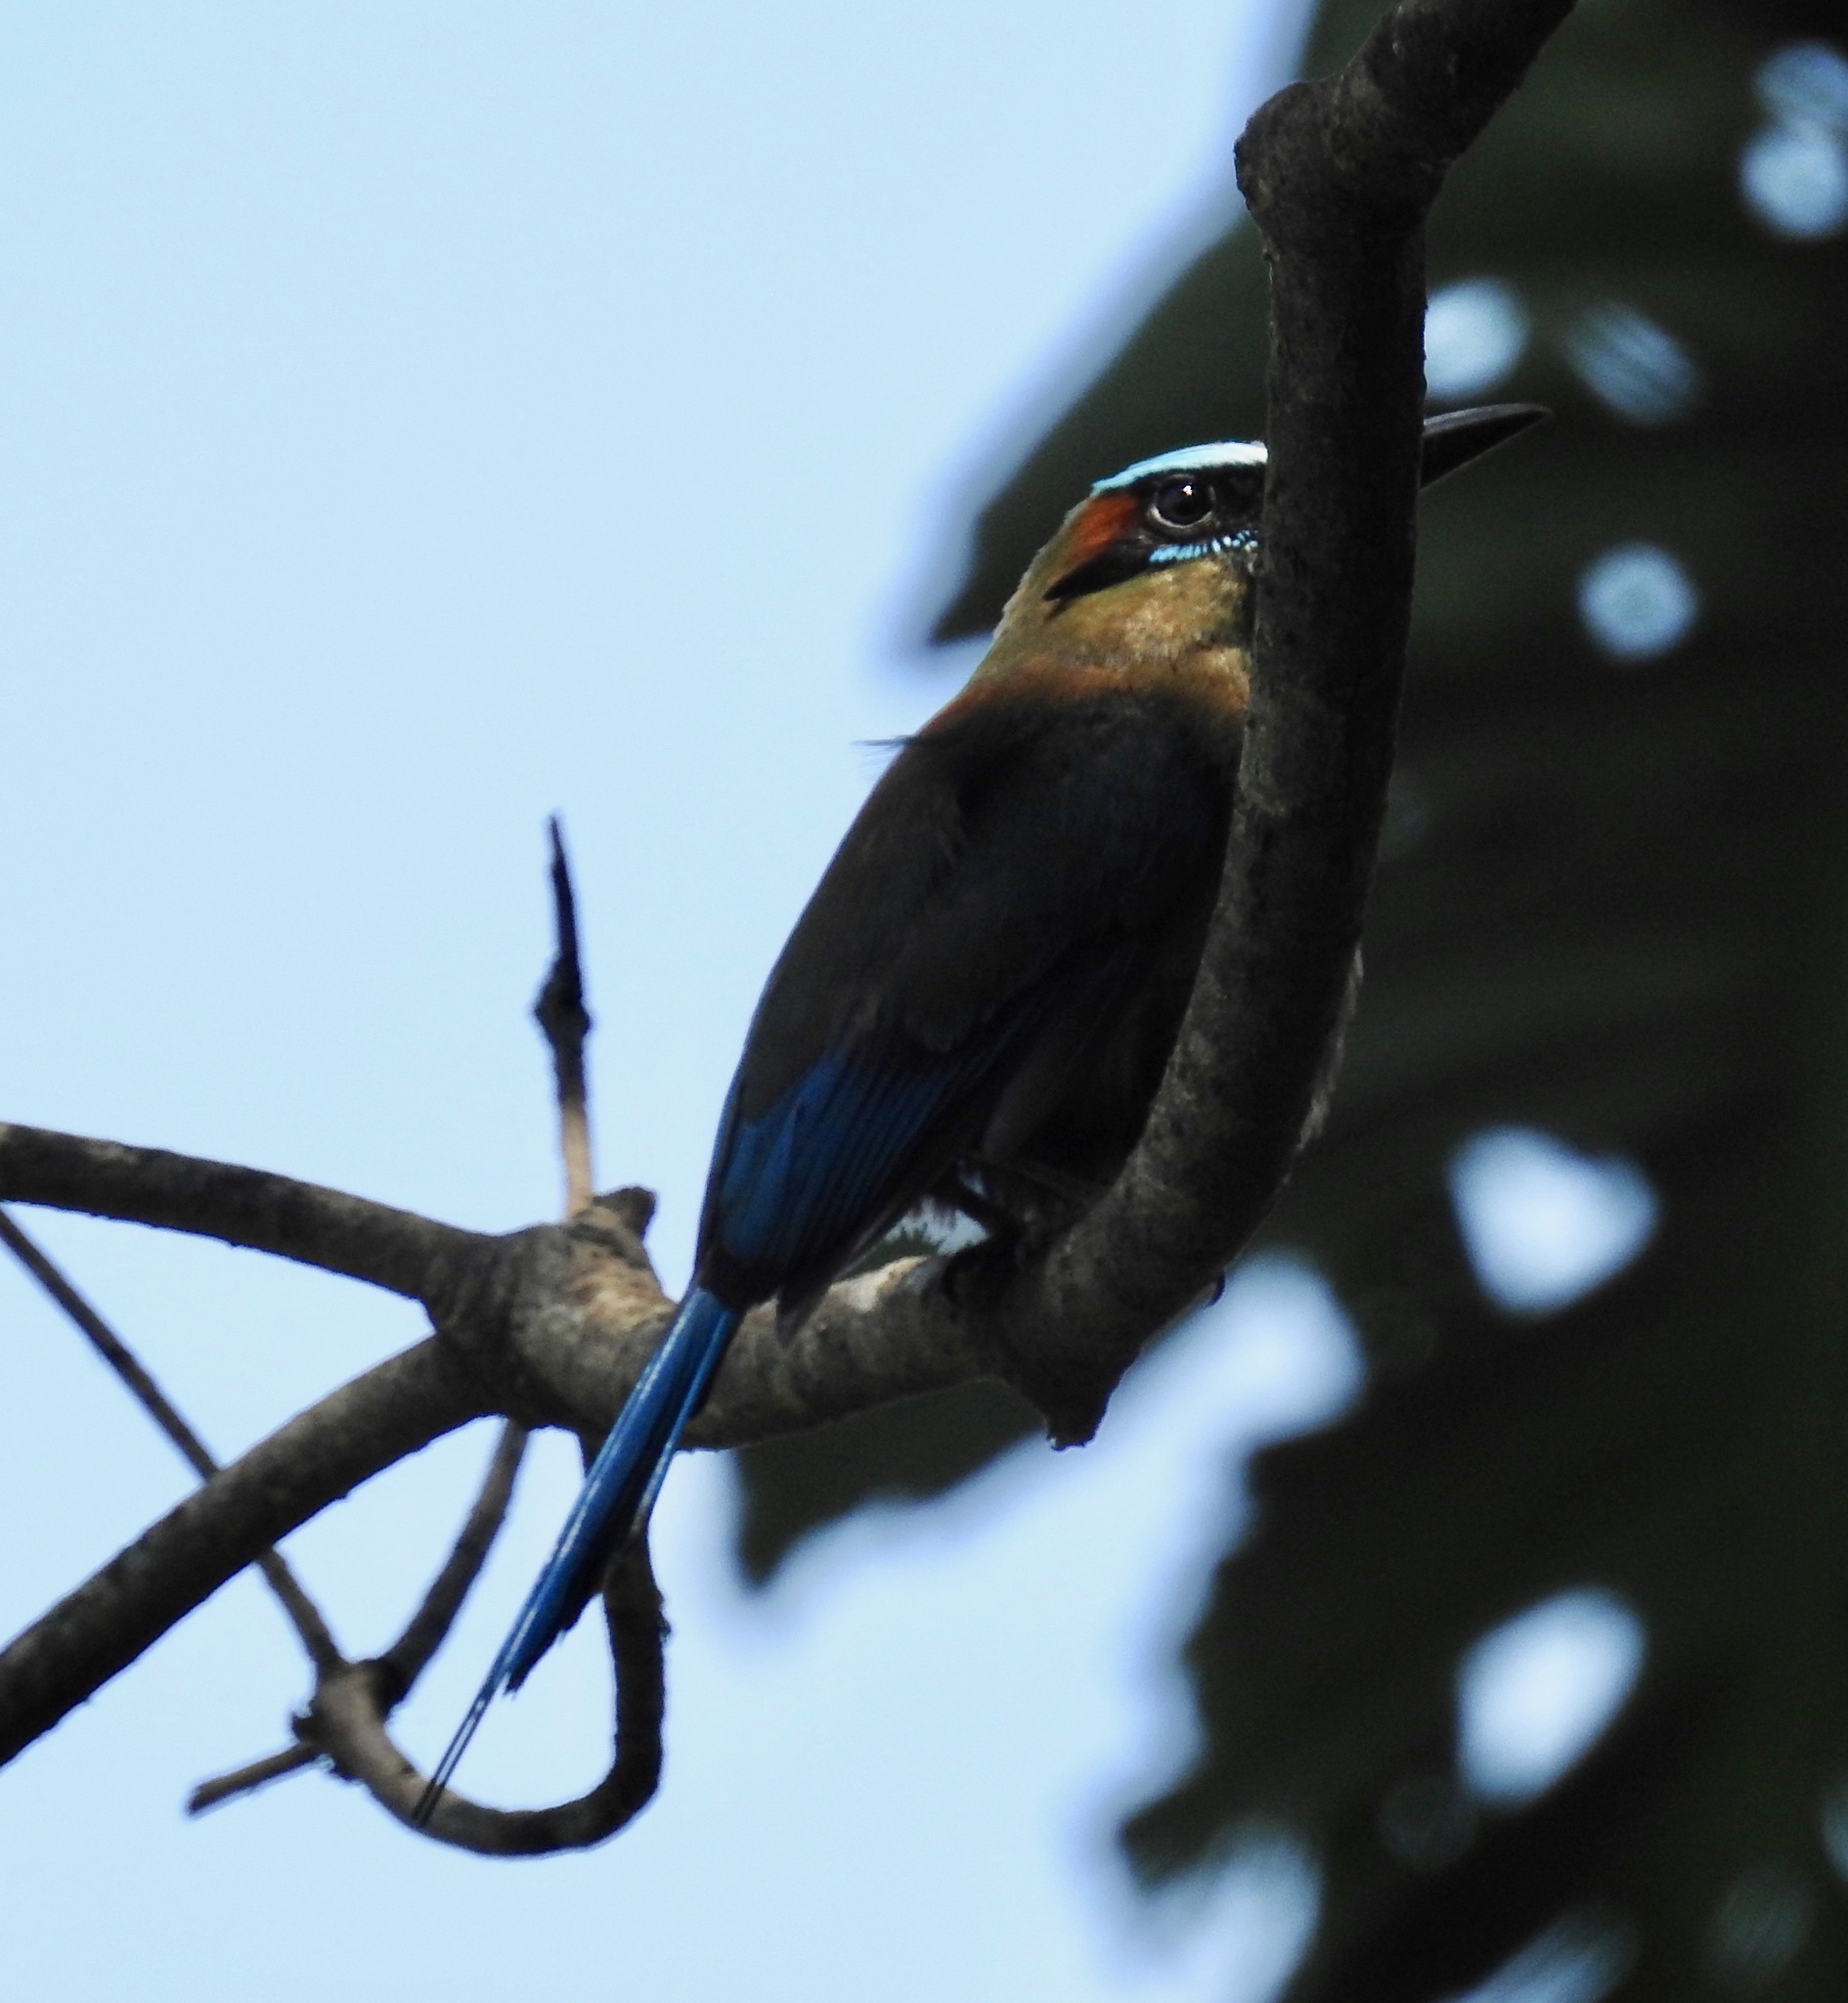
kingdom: Animalia
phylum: Chordata
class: Aves
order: Coraciiformes
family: Momotidae
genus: Eumomota
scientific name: Eumomota superciliosa
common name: Turquoise-browed motmot
